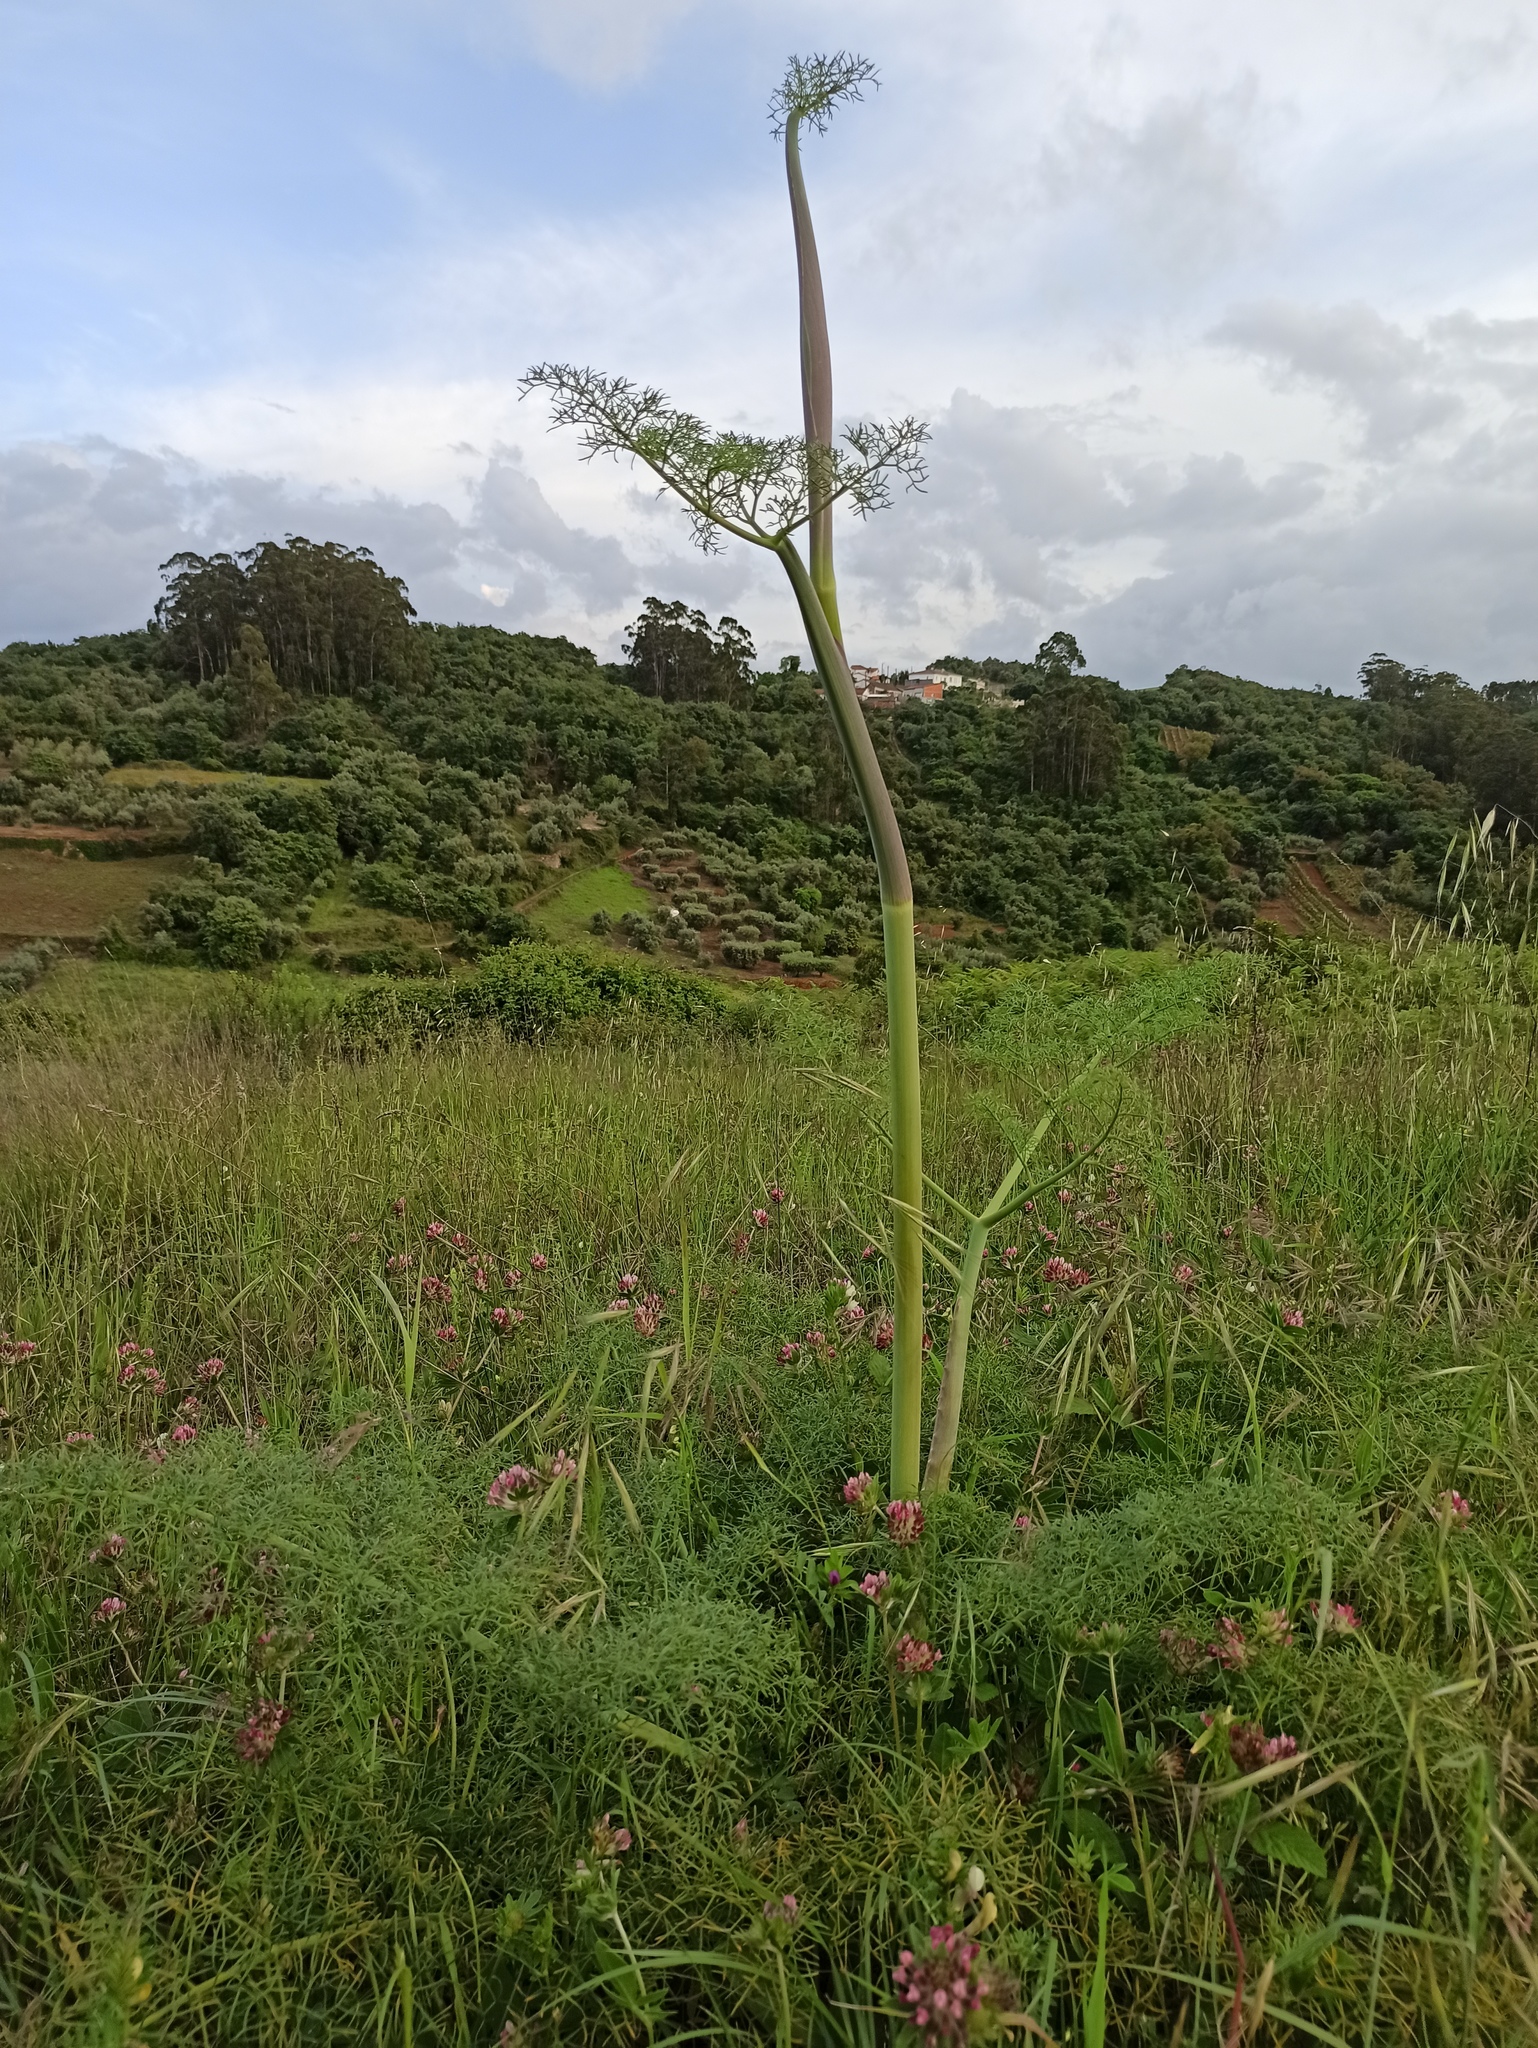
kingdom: Plantae
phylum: Tracheophyta
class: Magnoliopsida
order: Apiales
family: Apiaceae
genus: Ferula
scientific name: Ferula communis
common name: Giant fennel
